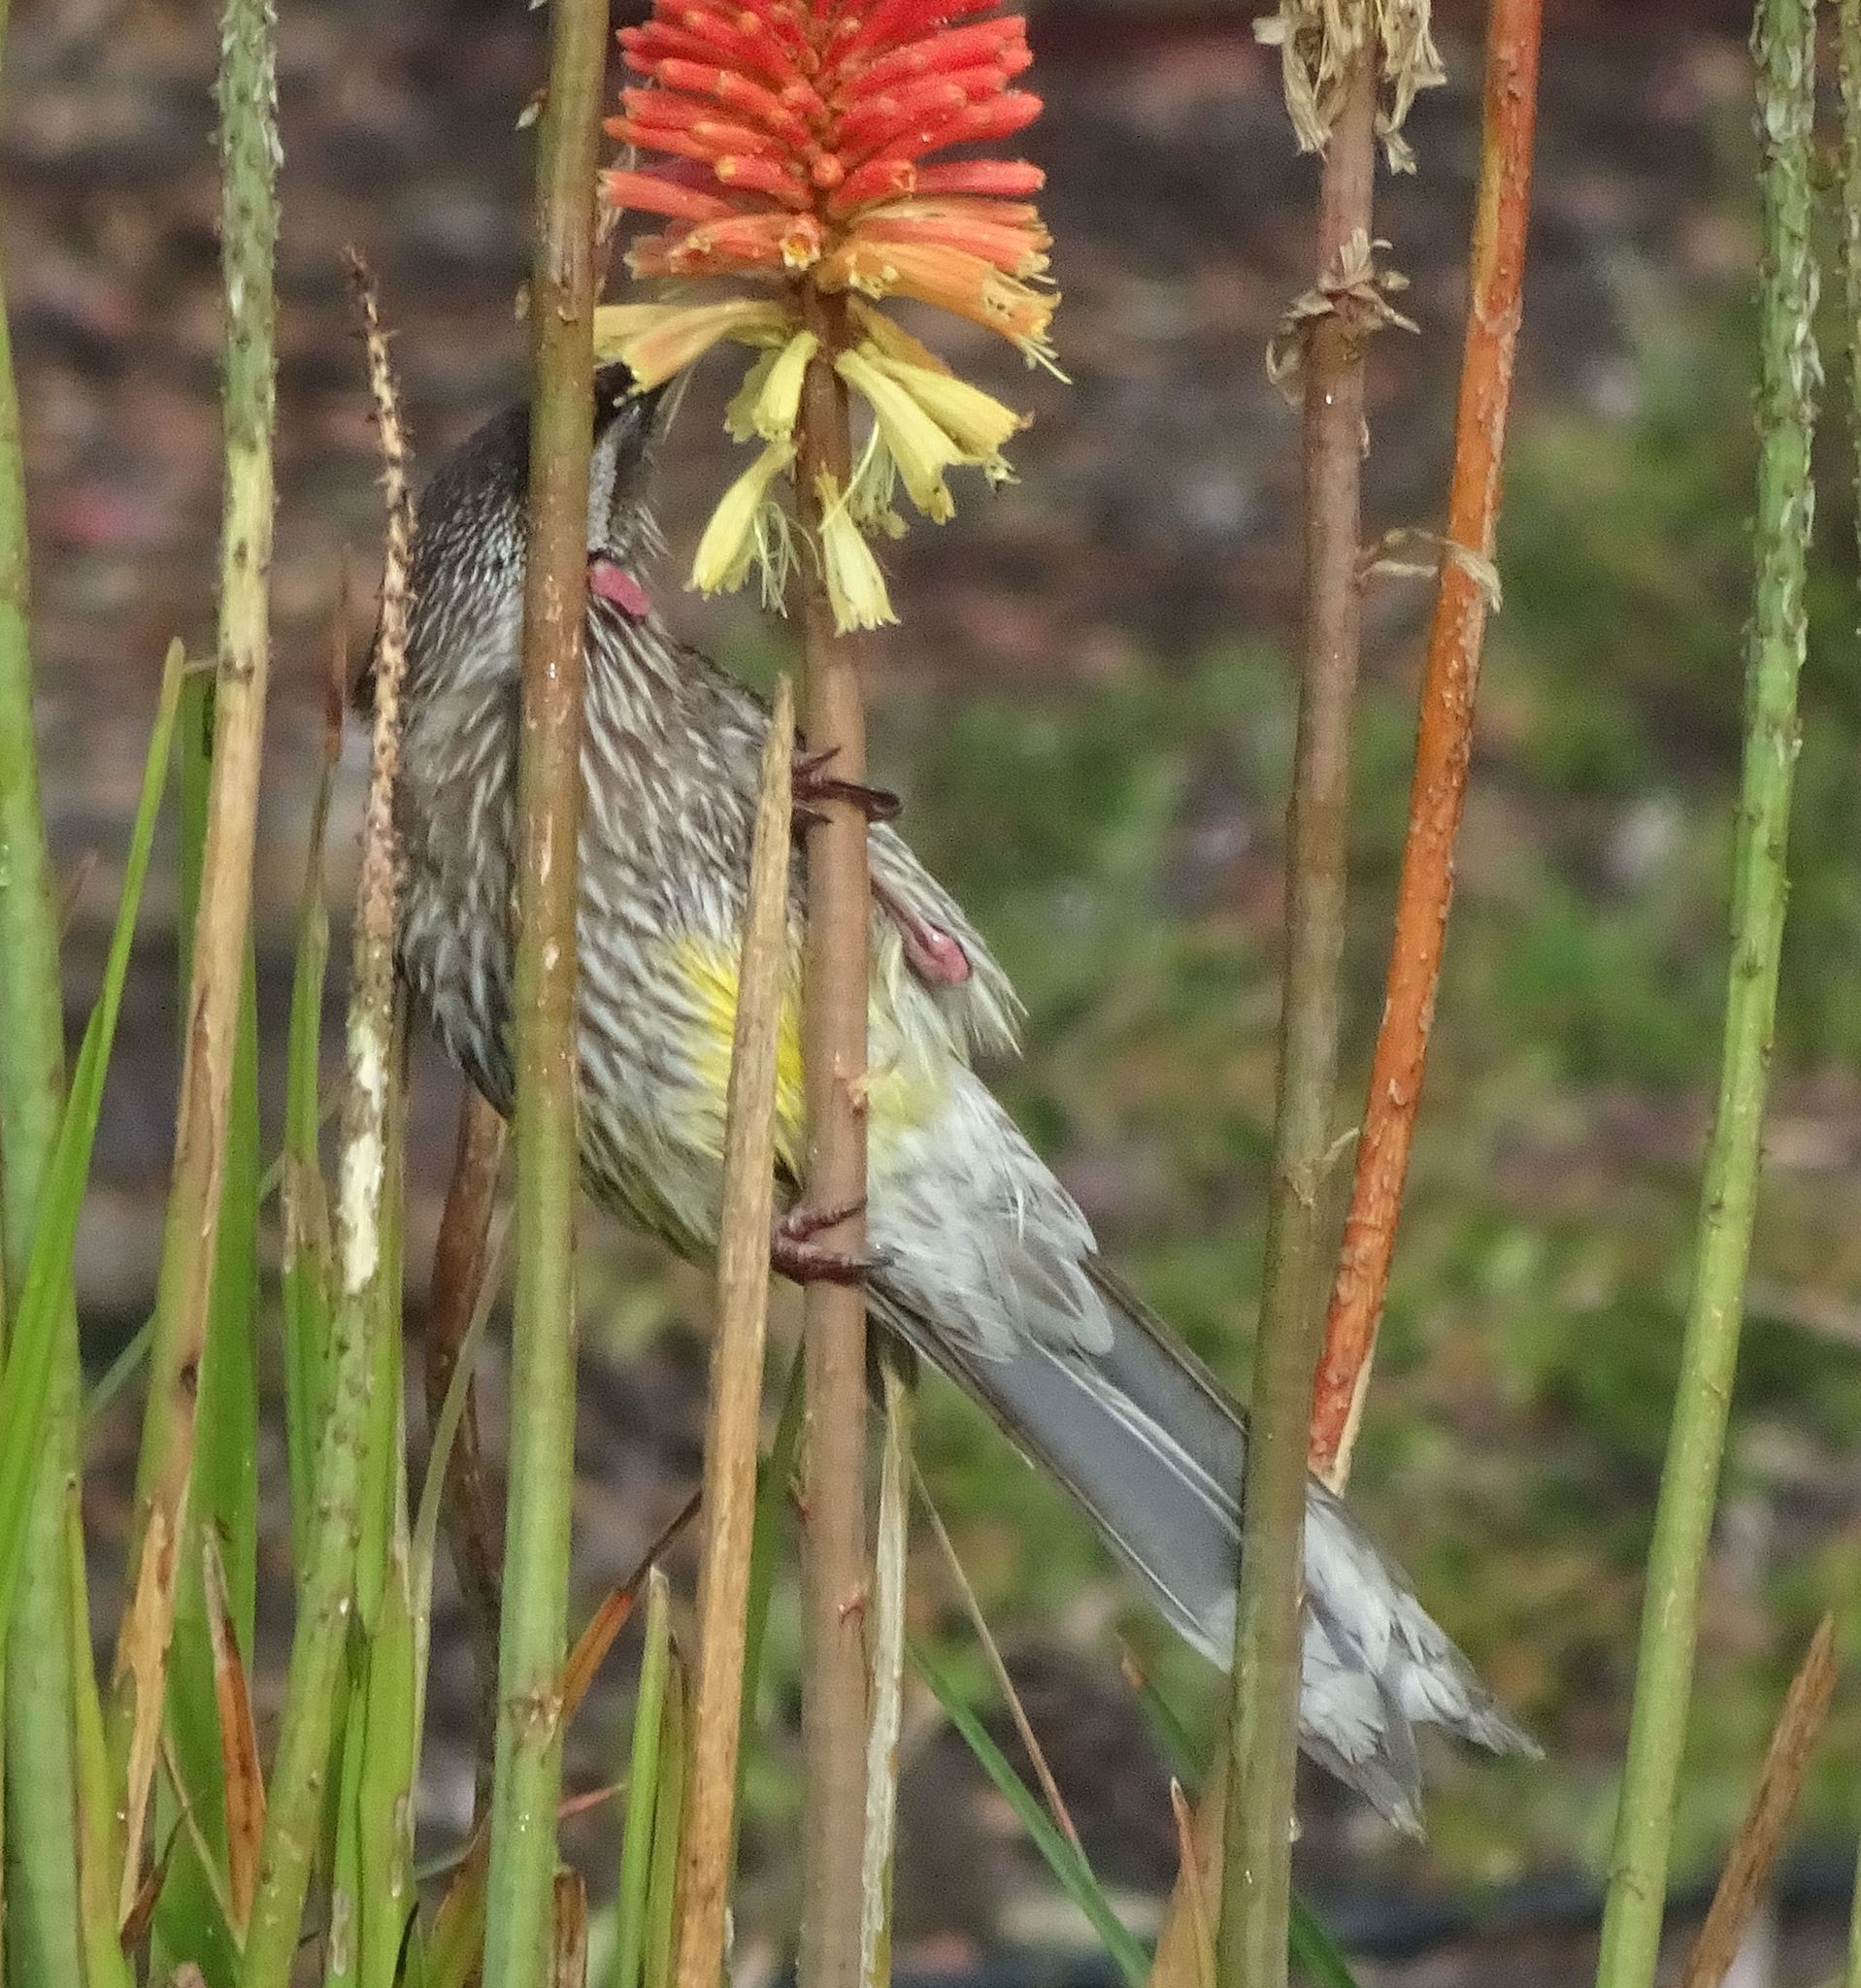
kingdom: Animalia
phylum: Chordata
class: Aves
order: Passeriformes
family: Meliphagidae
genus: Anthochaera
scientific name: Anthochaera carunculata
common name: Red wattlebird
